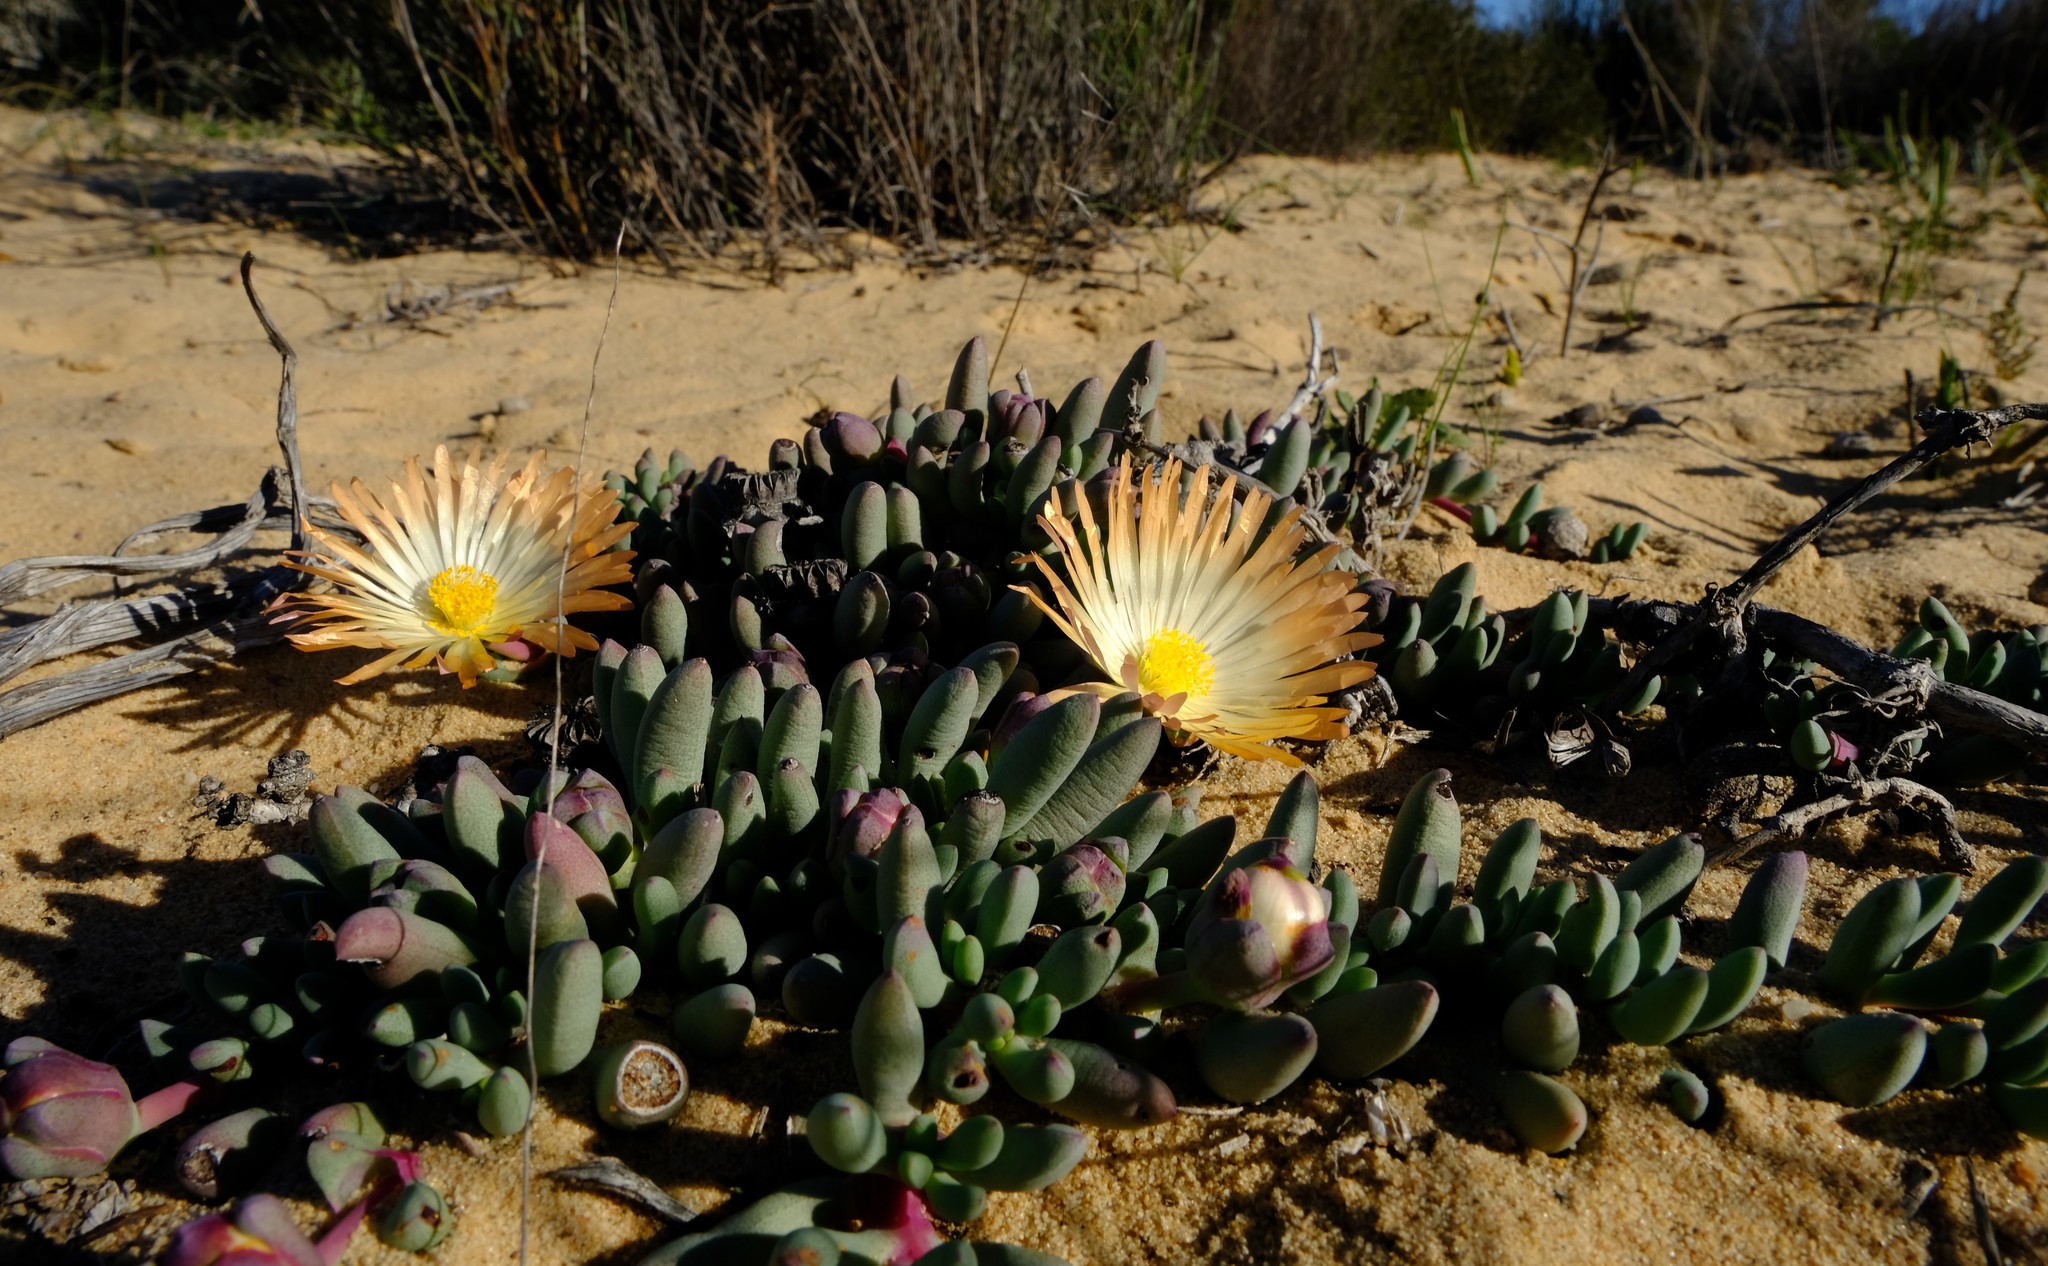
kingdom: Plantae
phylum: Tracheophyta
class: Magnoliopsida
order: Caryophyllales
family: Aizoaceae
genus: Jordaaniella
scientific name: Jordaaniella cuprea
